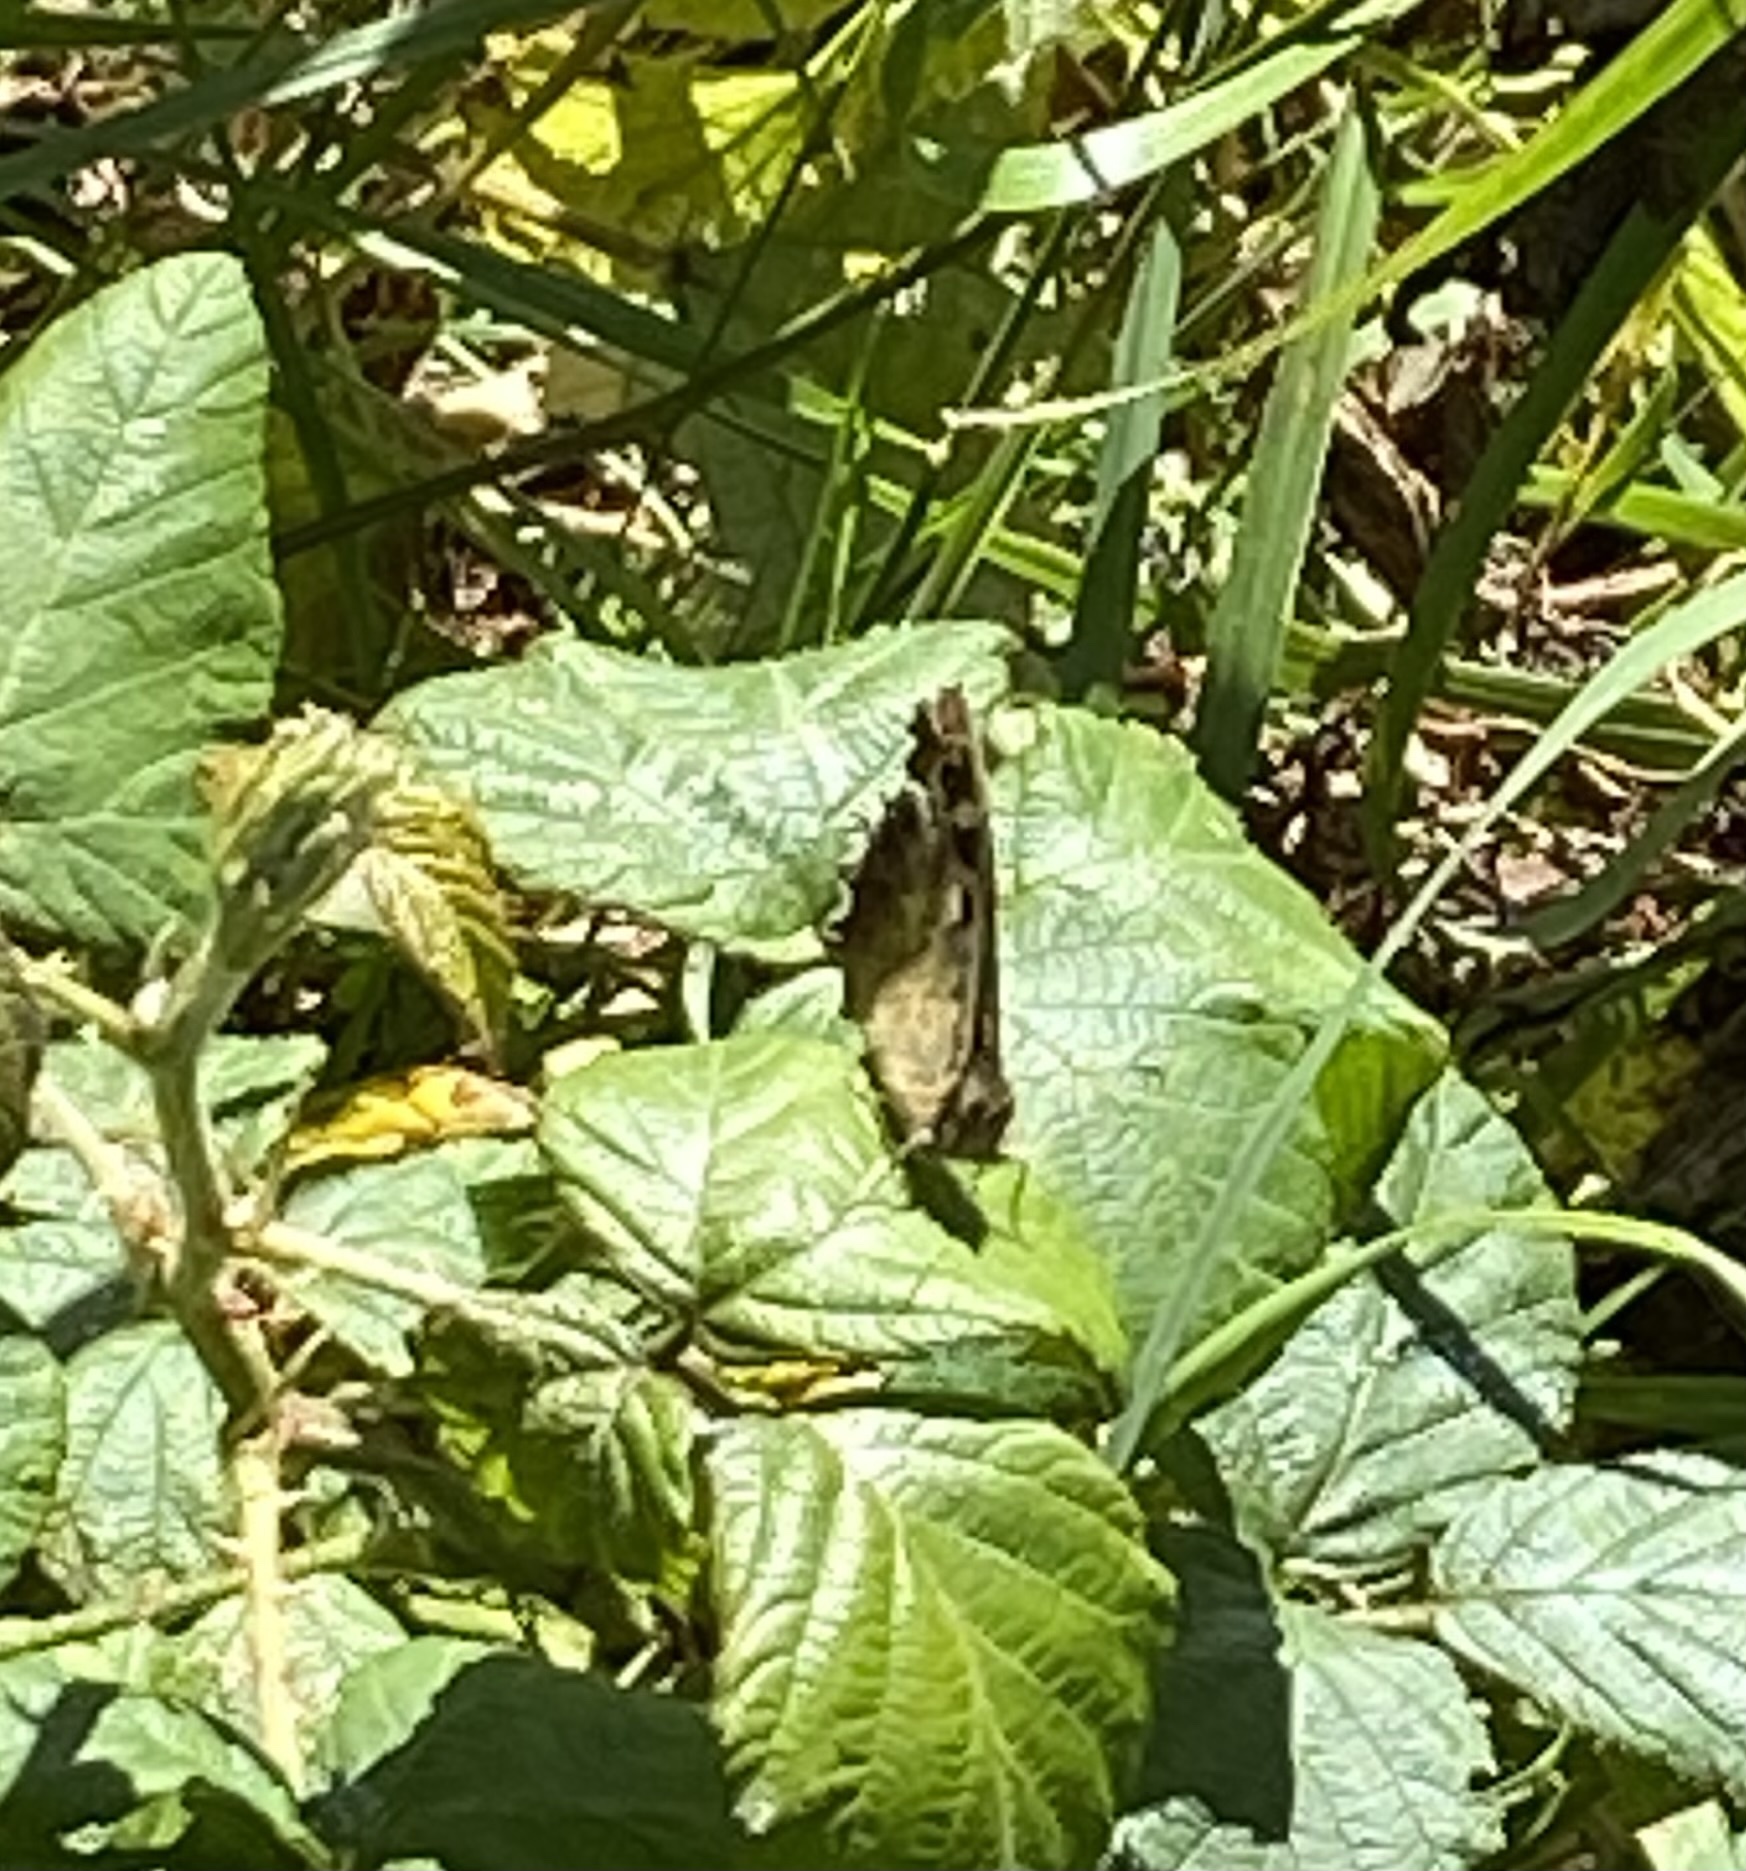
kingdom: Animalia
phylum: Arthropoda
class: Insecta
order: Lepidoptera
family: Nymphalidae
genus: Pararge
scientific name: Pararge aegeria
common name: Speckled wood
